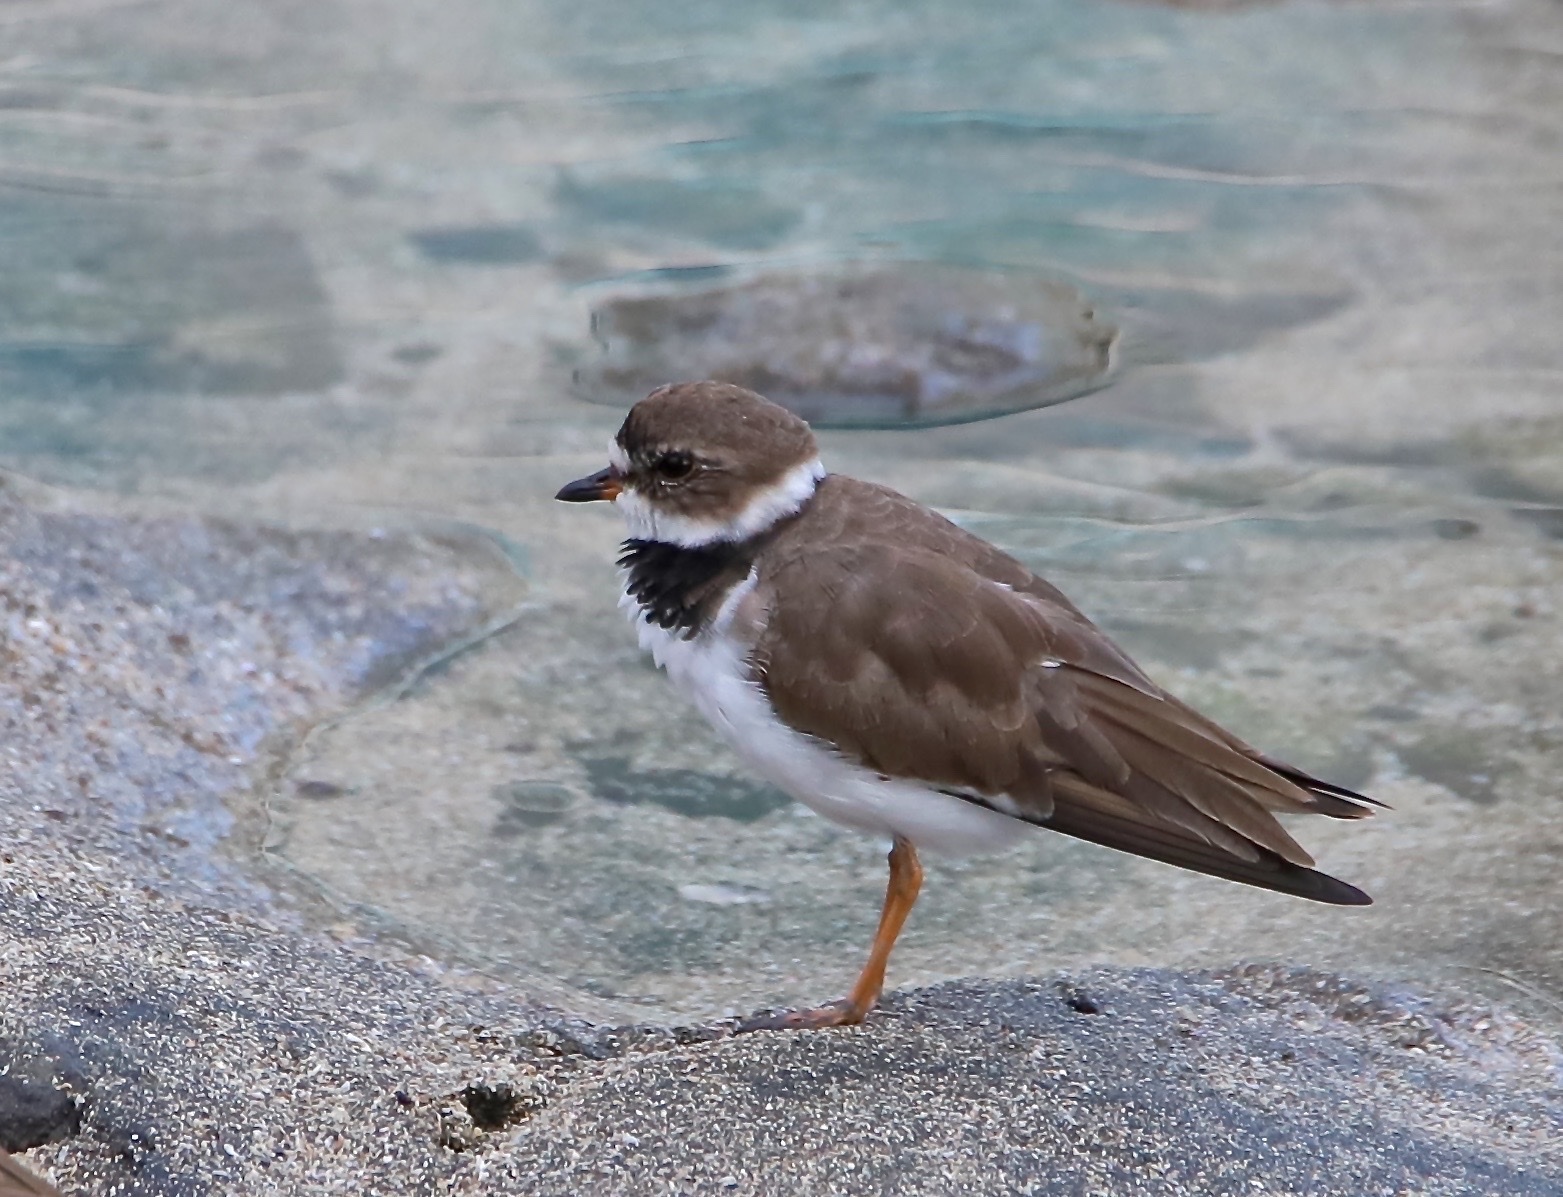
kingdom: Animalia
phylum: Chordata
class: Aves
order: Charadriiformes
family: Charadriidae
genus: Charadrius
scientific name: Charadrius semipalmatus
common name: Semipalmated plover
